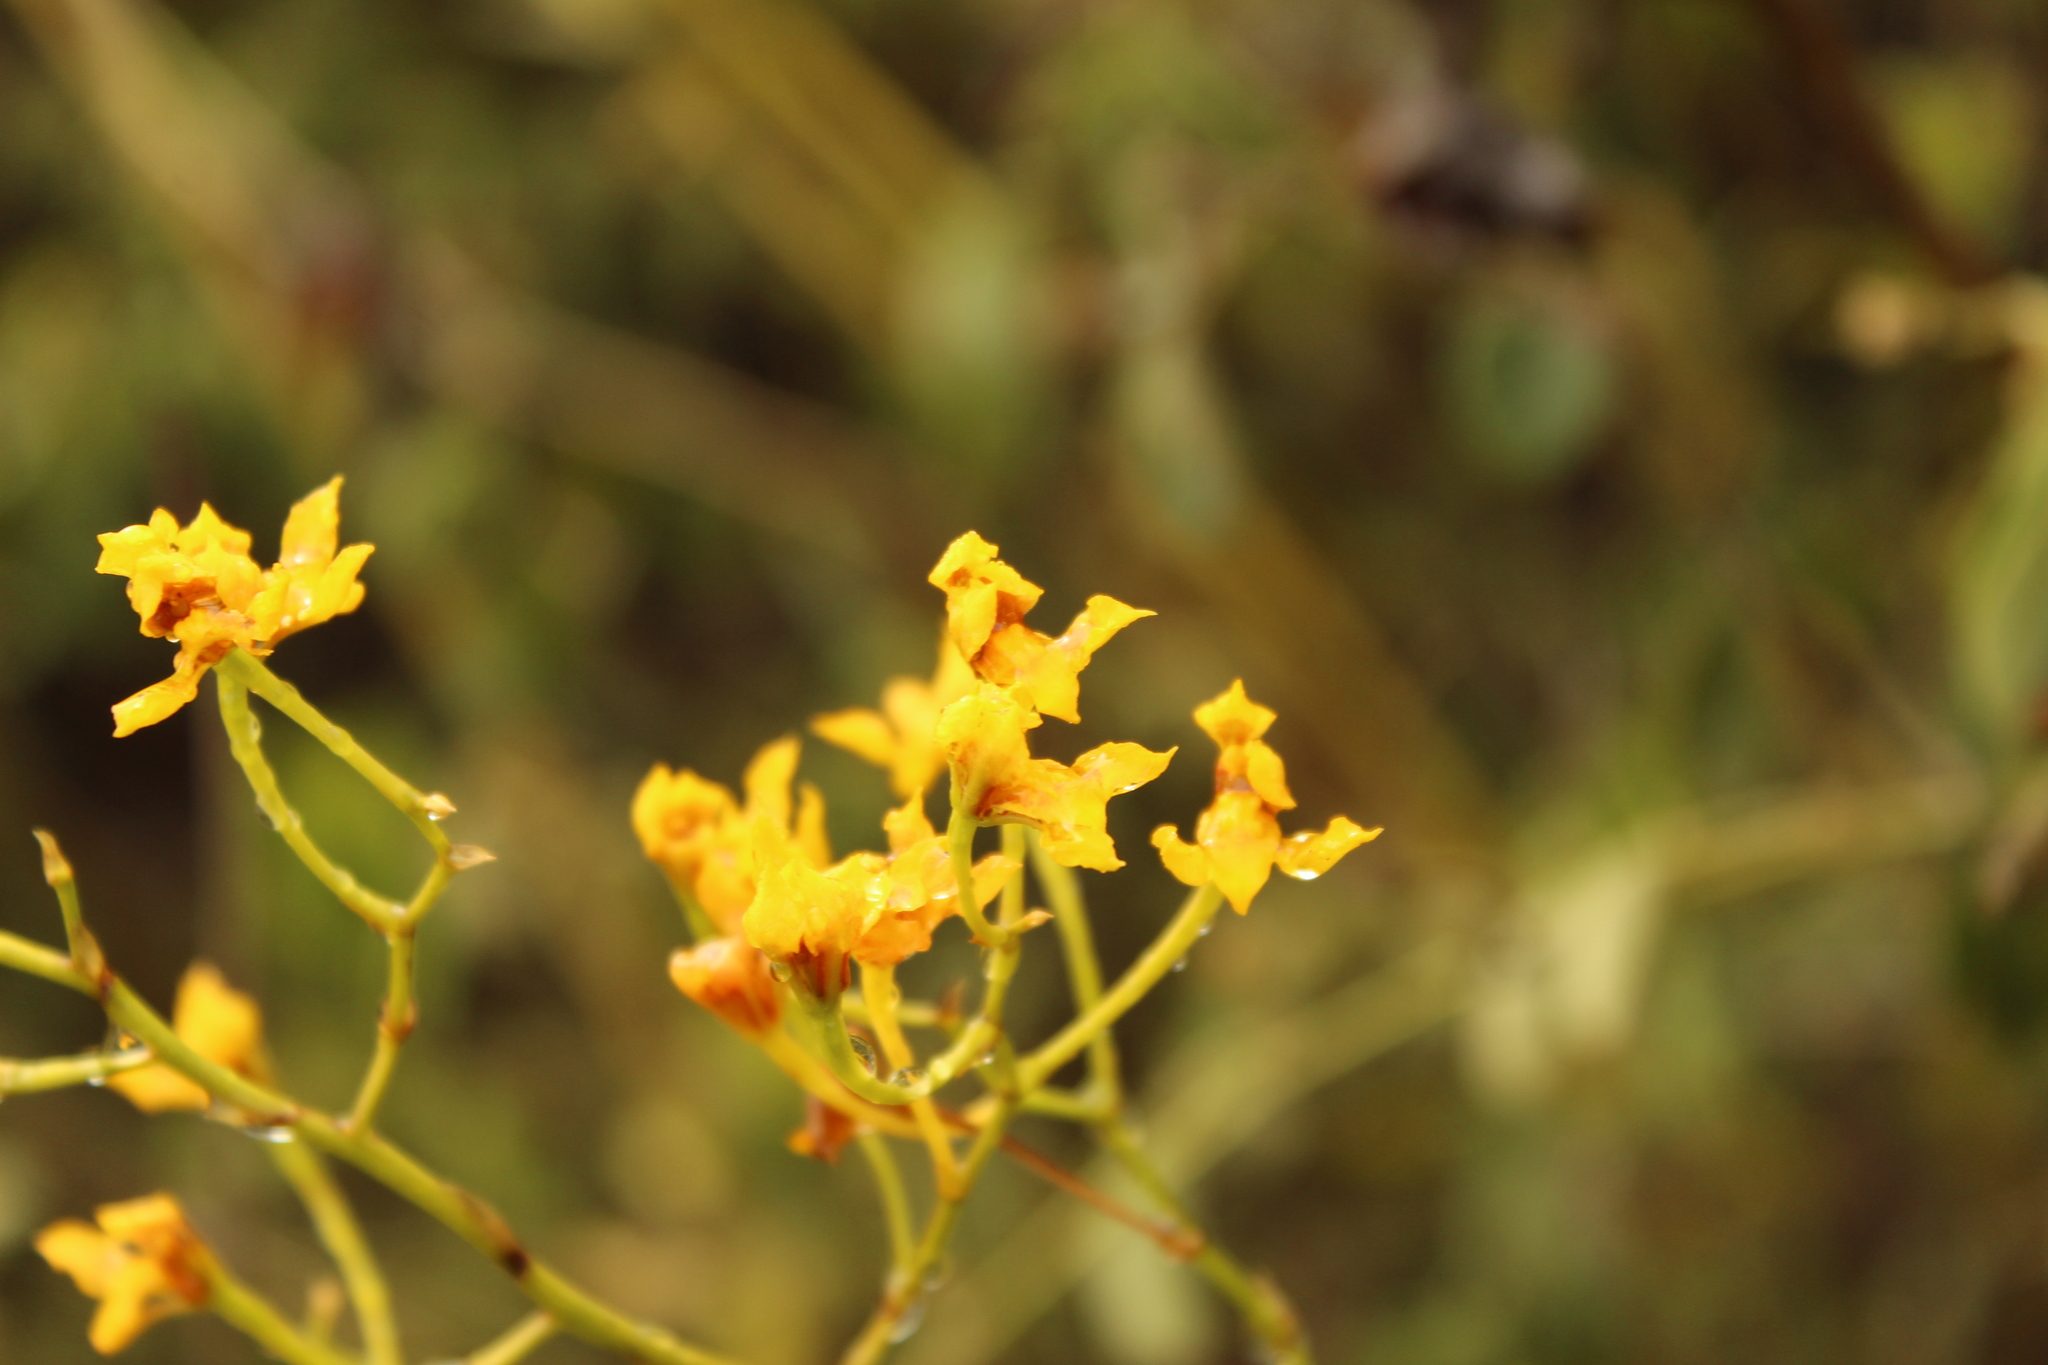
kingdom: Plantae
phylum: Tracheophyta
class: Liliopsida
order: Asparagales
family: Orchidaceae
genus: Cyrtochilum
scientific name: Cyrtochilum densiflorum
